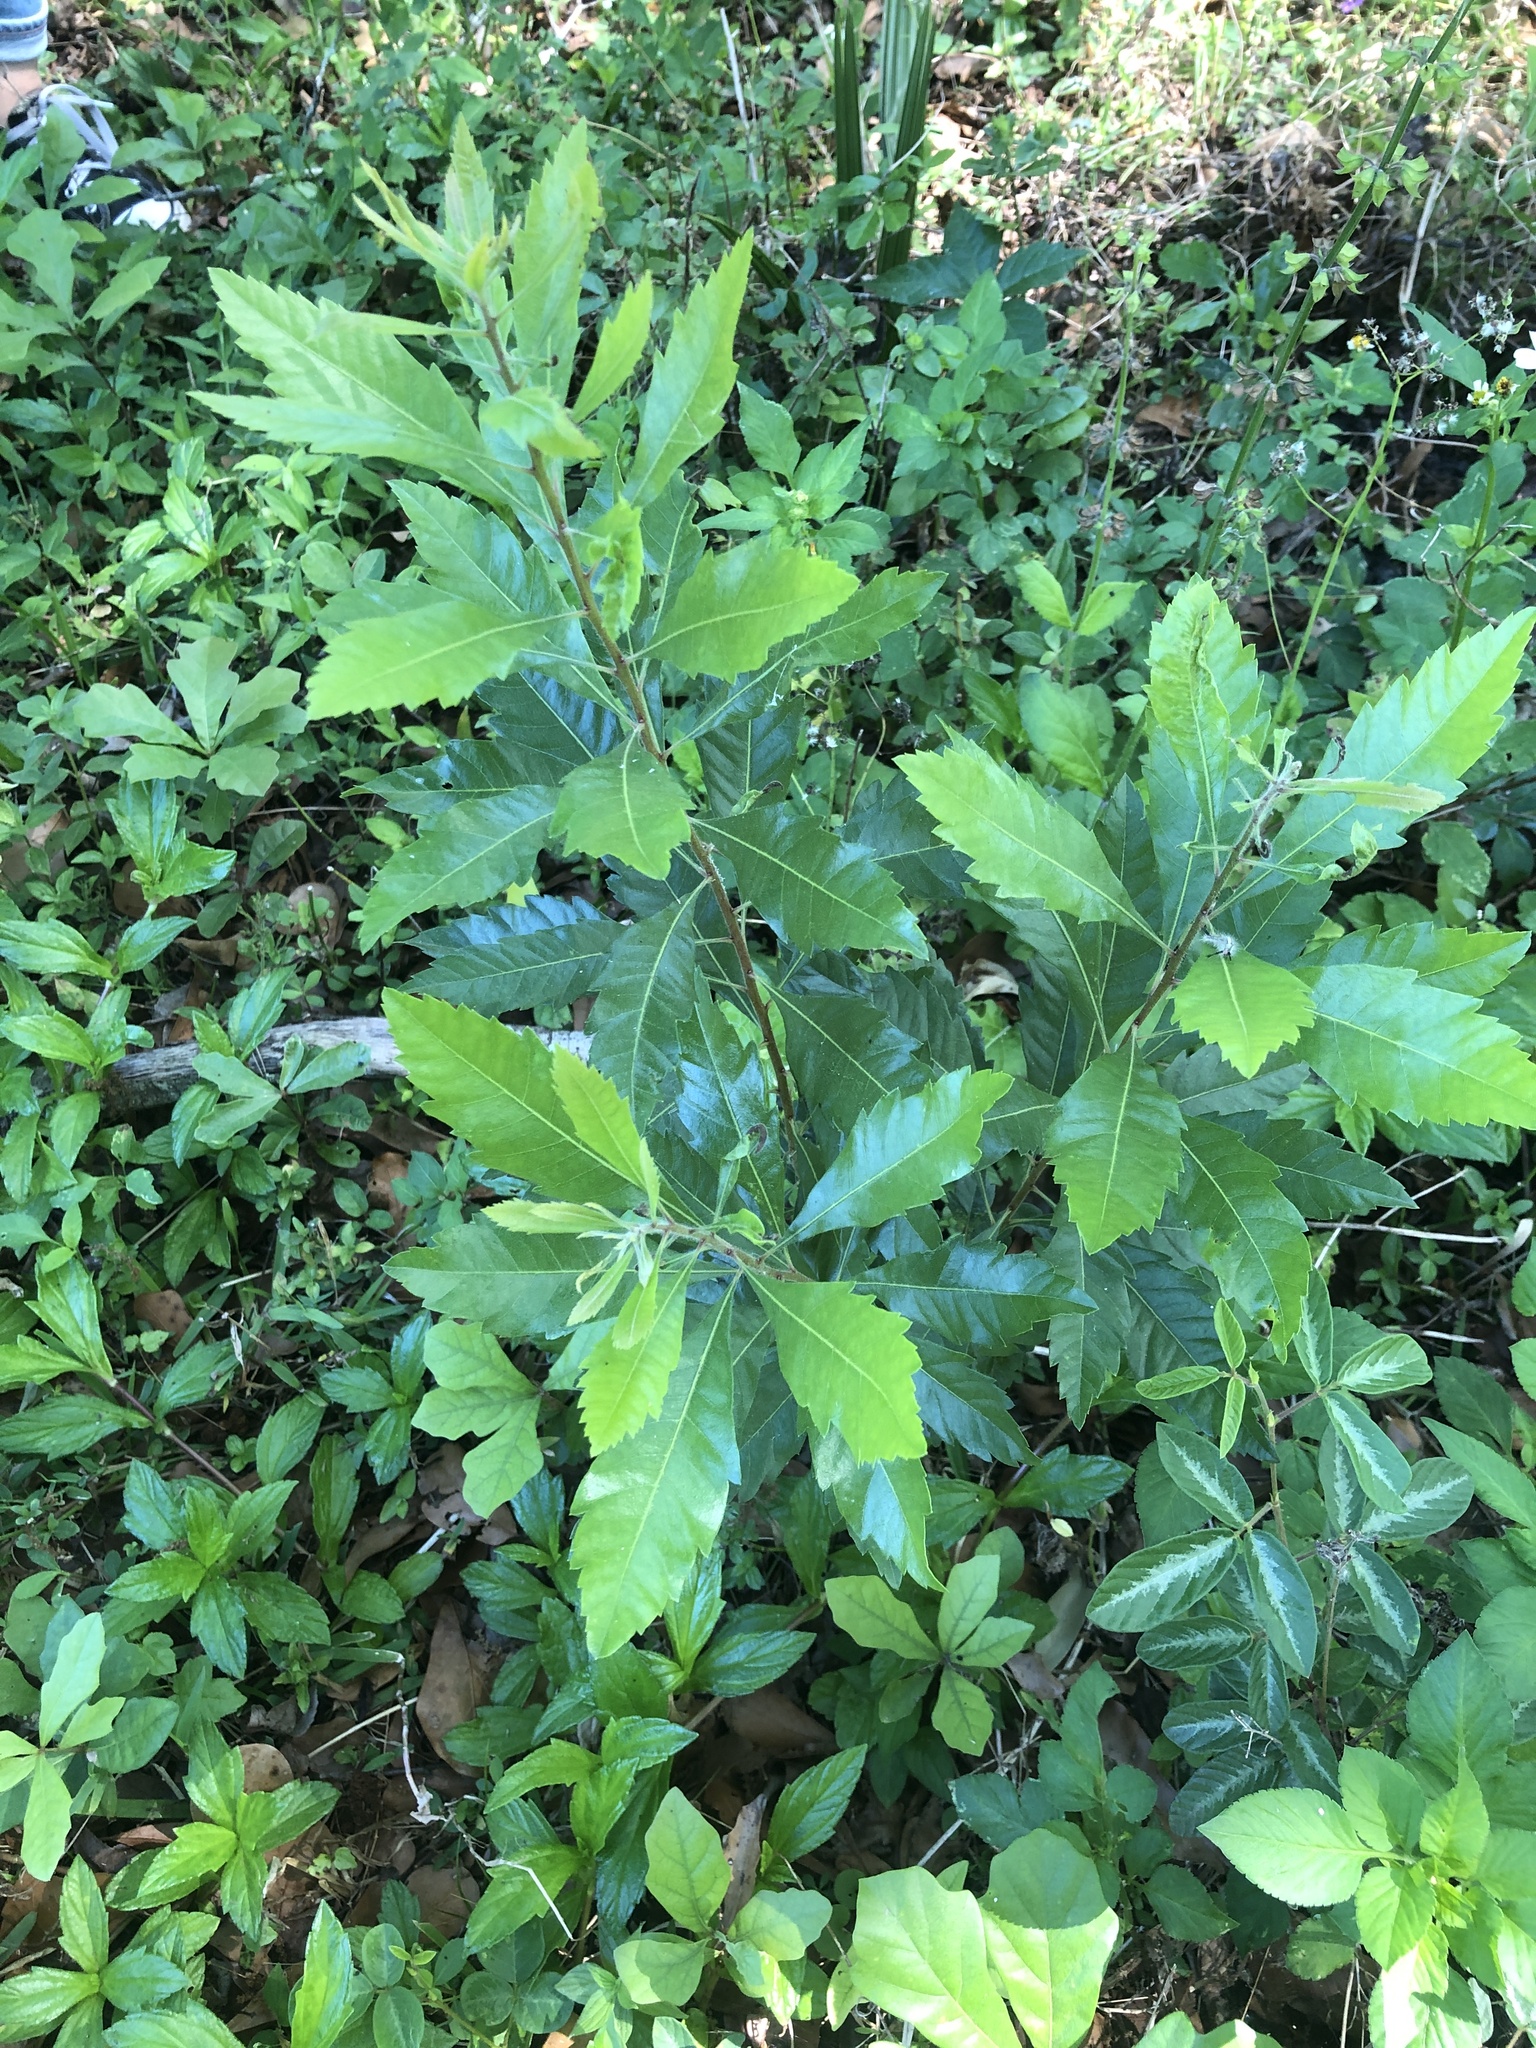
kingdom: Plantae
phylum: Tracheophyta
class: Magnoliopsida
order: Fagales
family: Myricaceae
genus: Morella
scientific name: Morella cerifera
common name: Wax myrtle
